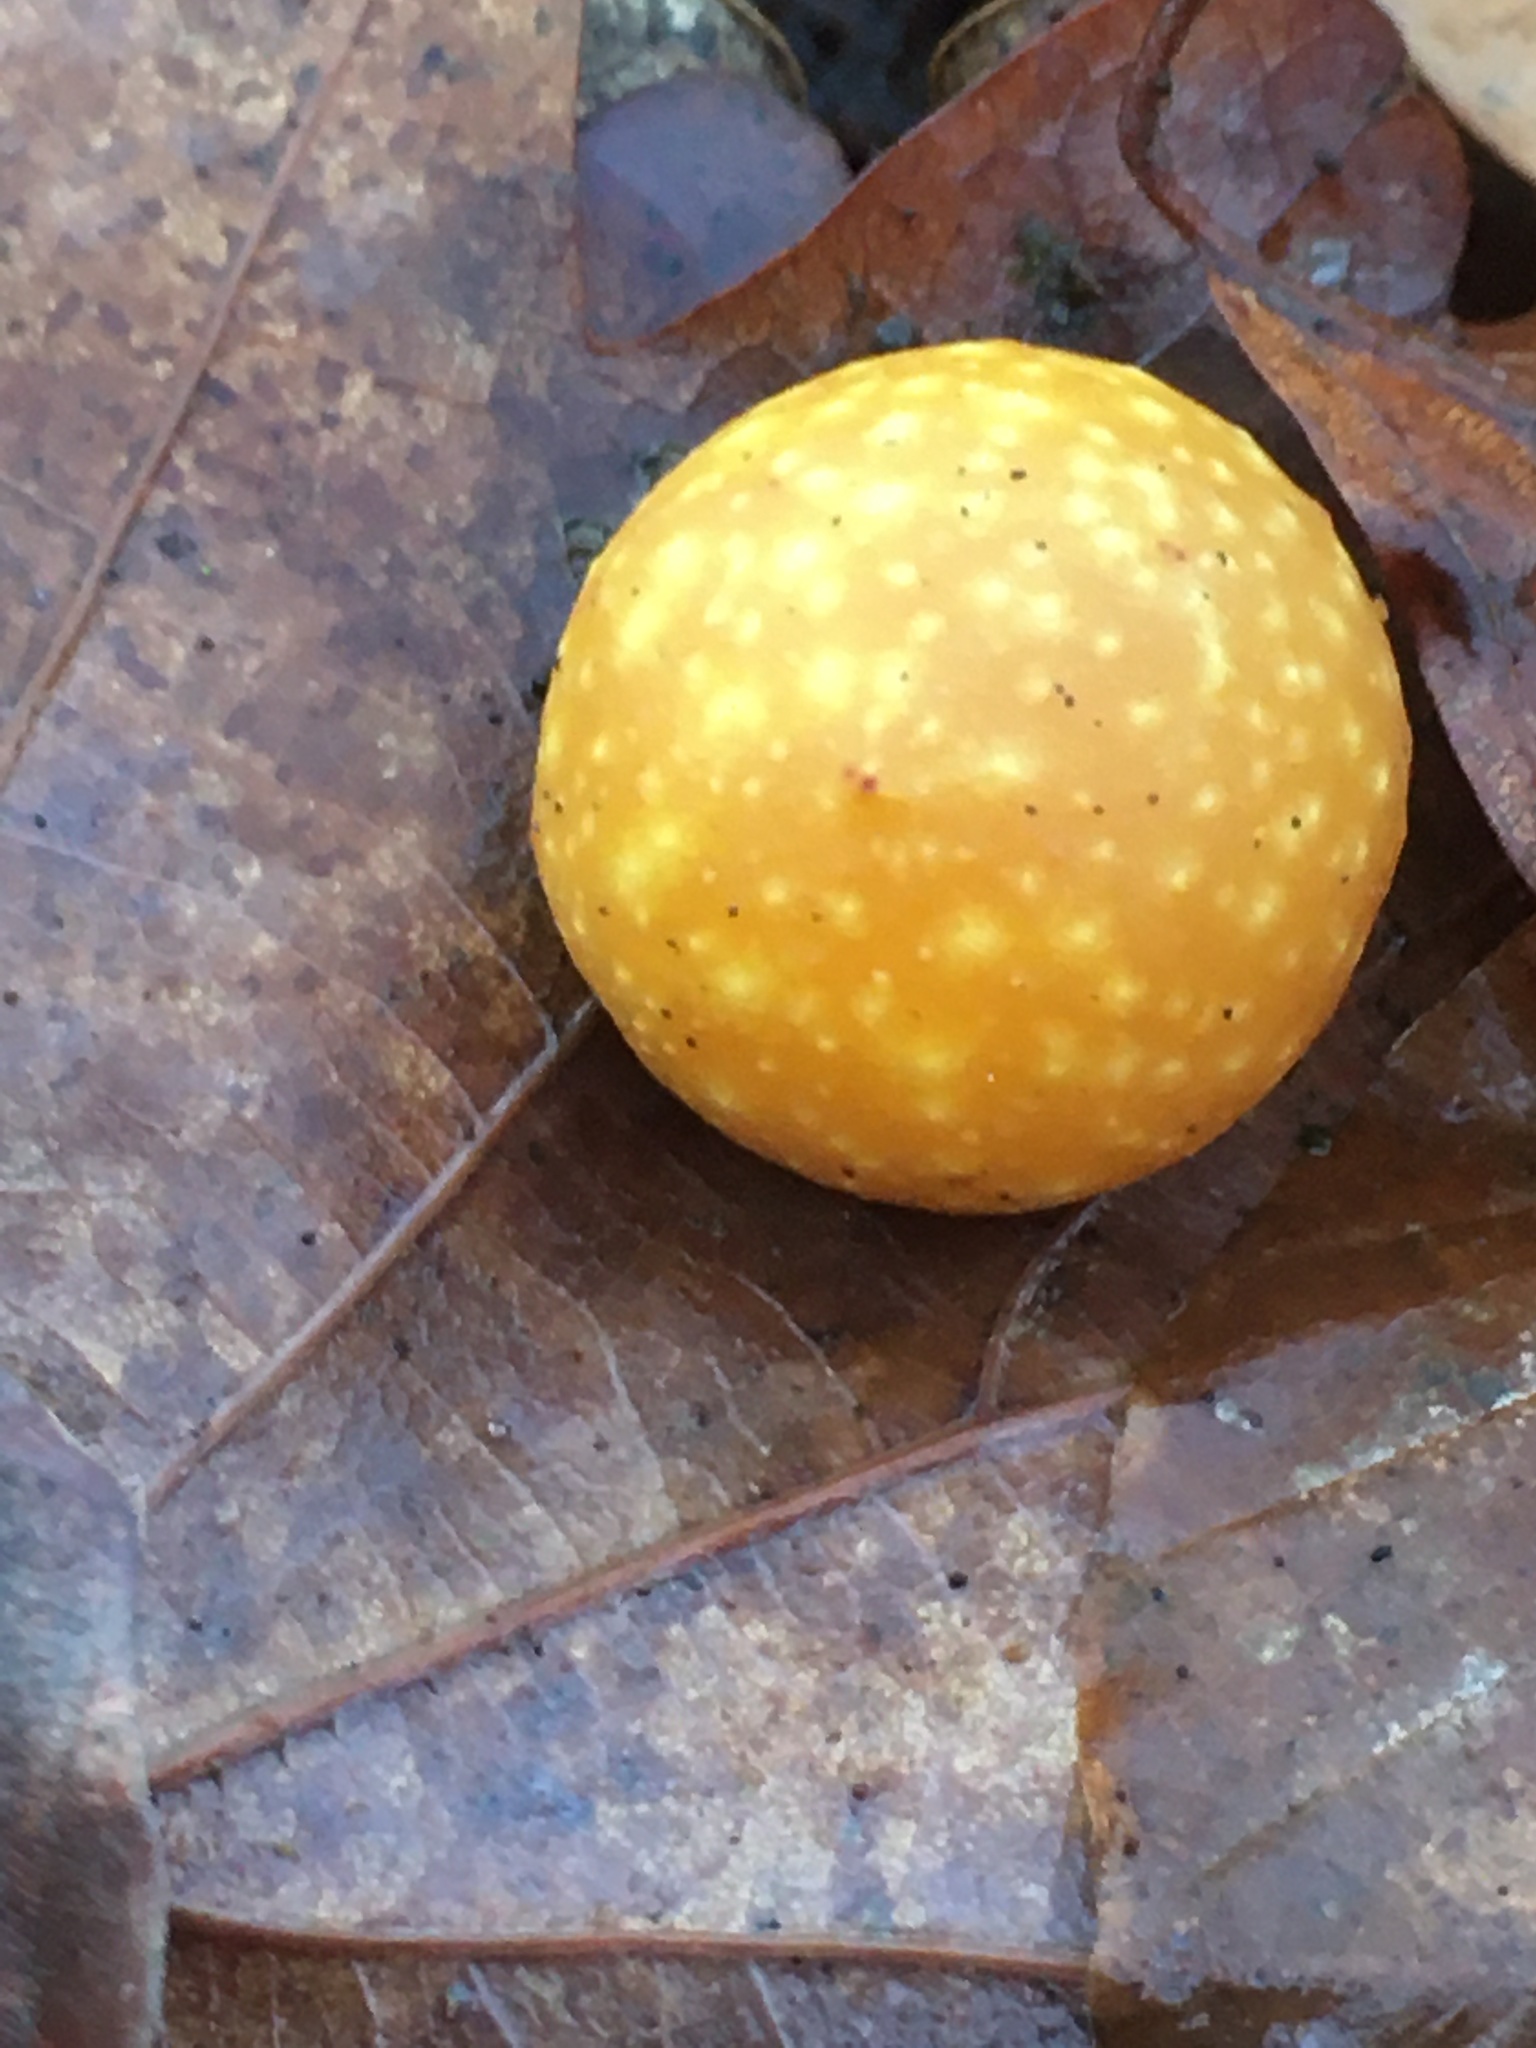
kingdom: Animalia
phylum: Arthropoda
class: Insecta
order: Hymenoptera
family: Cynipidae
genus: Cynips
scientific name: Cynips quercusfolii
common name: Cherry gall
